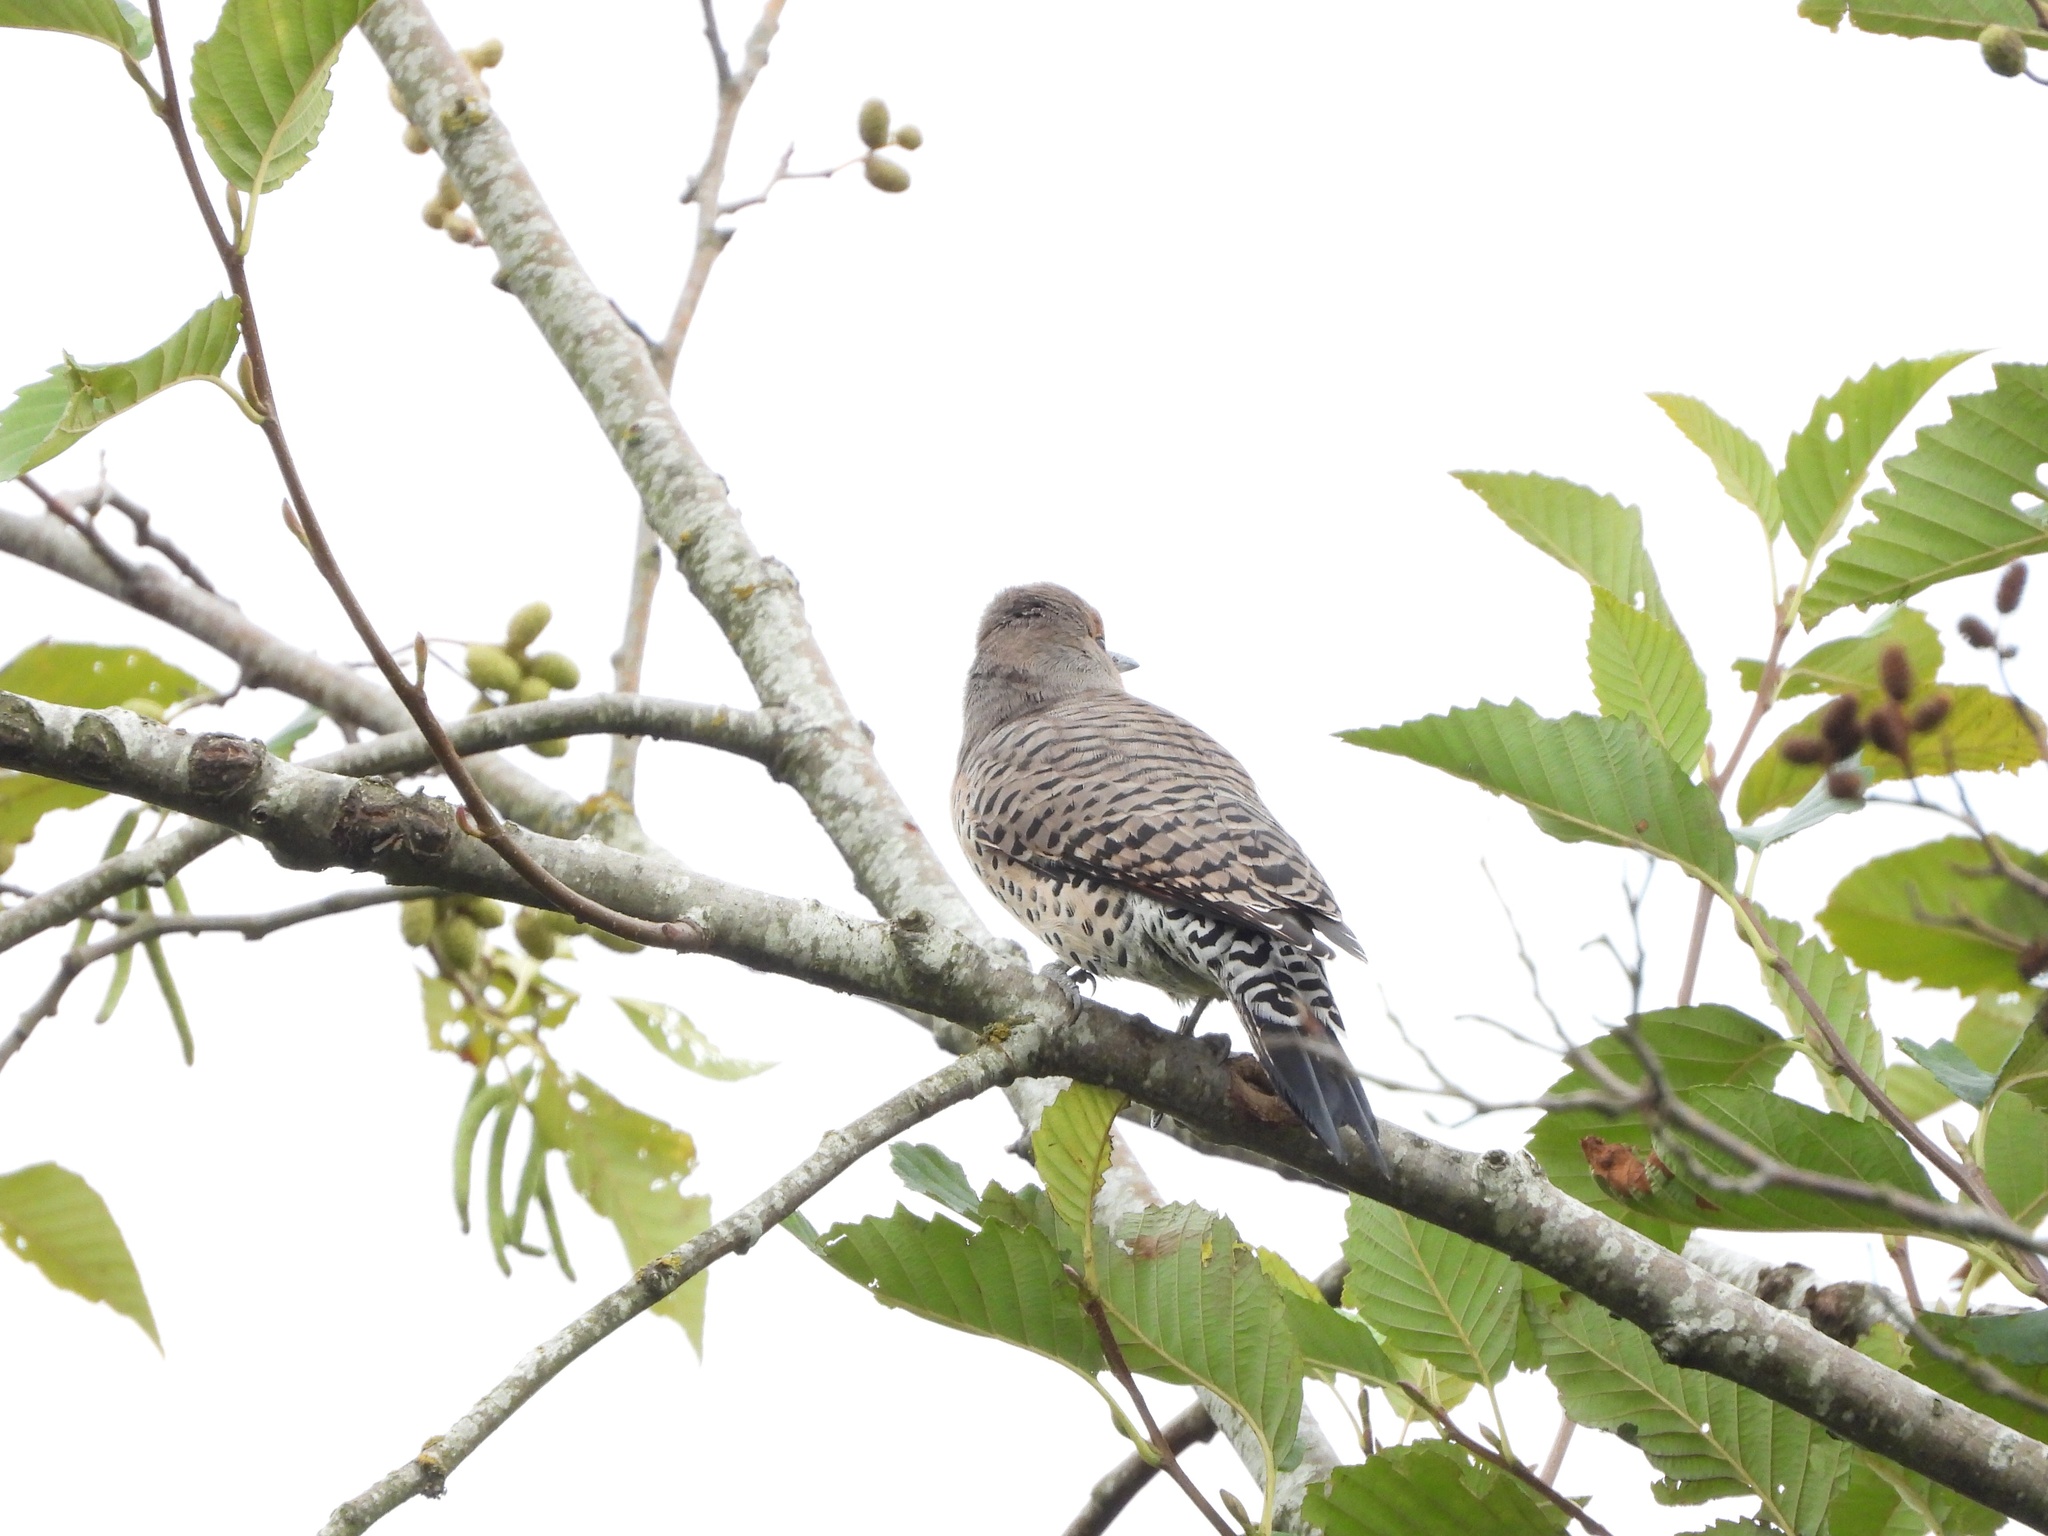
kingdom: Animalia
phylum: Chordata
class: Aves
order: Piciformes
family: Picidae
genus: Colaptes
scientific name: Colaptes auratus
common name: Northern flicker
